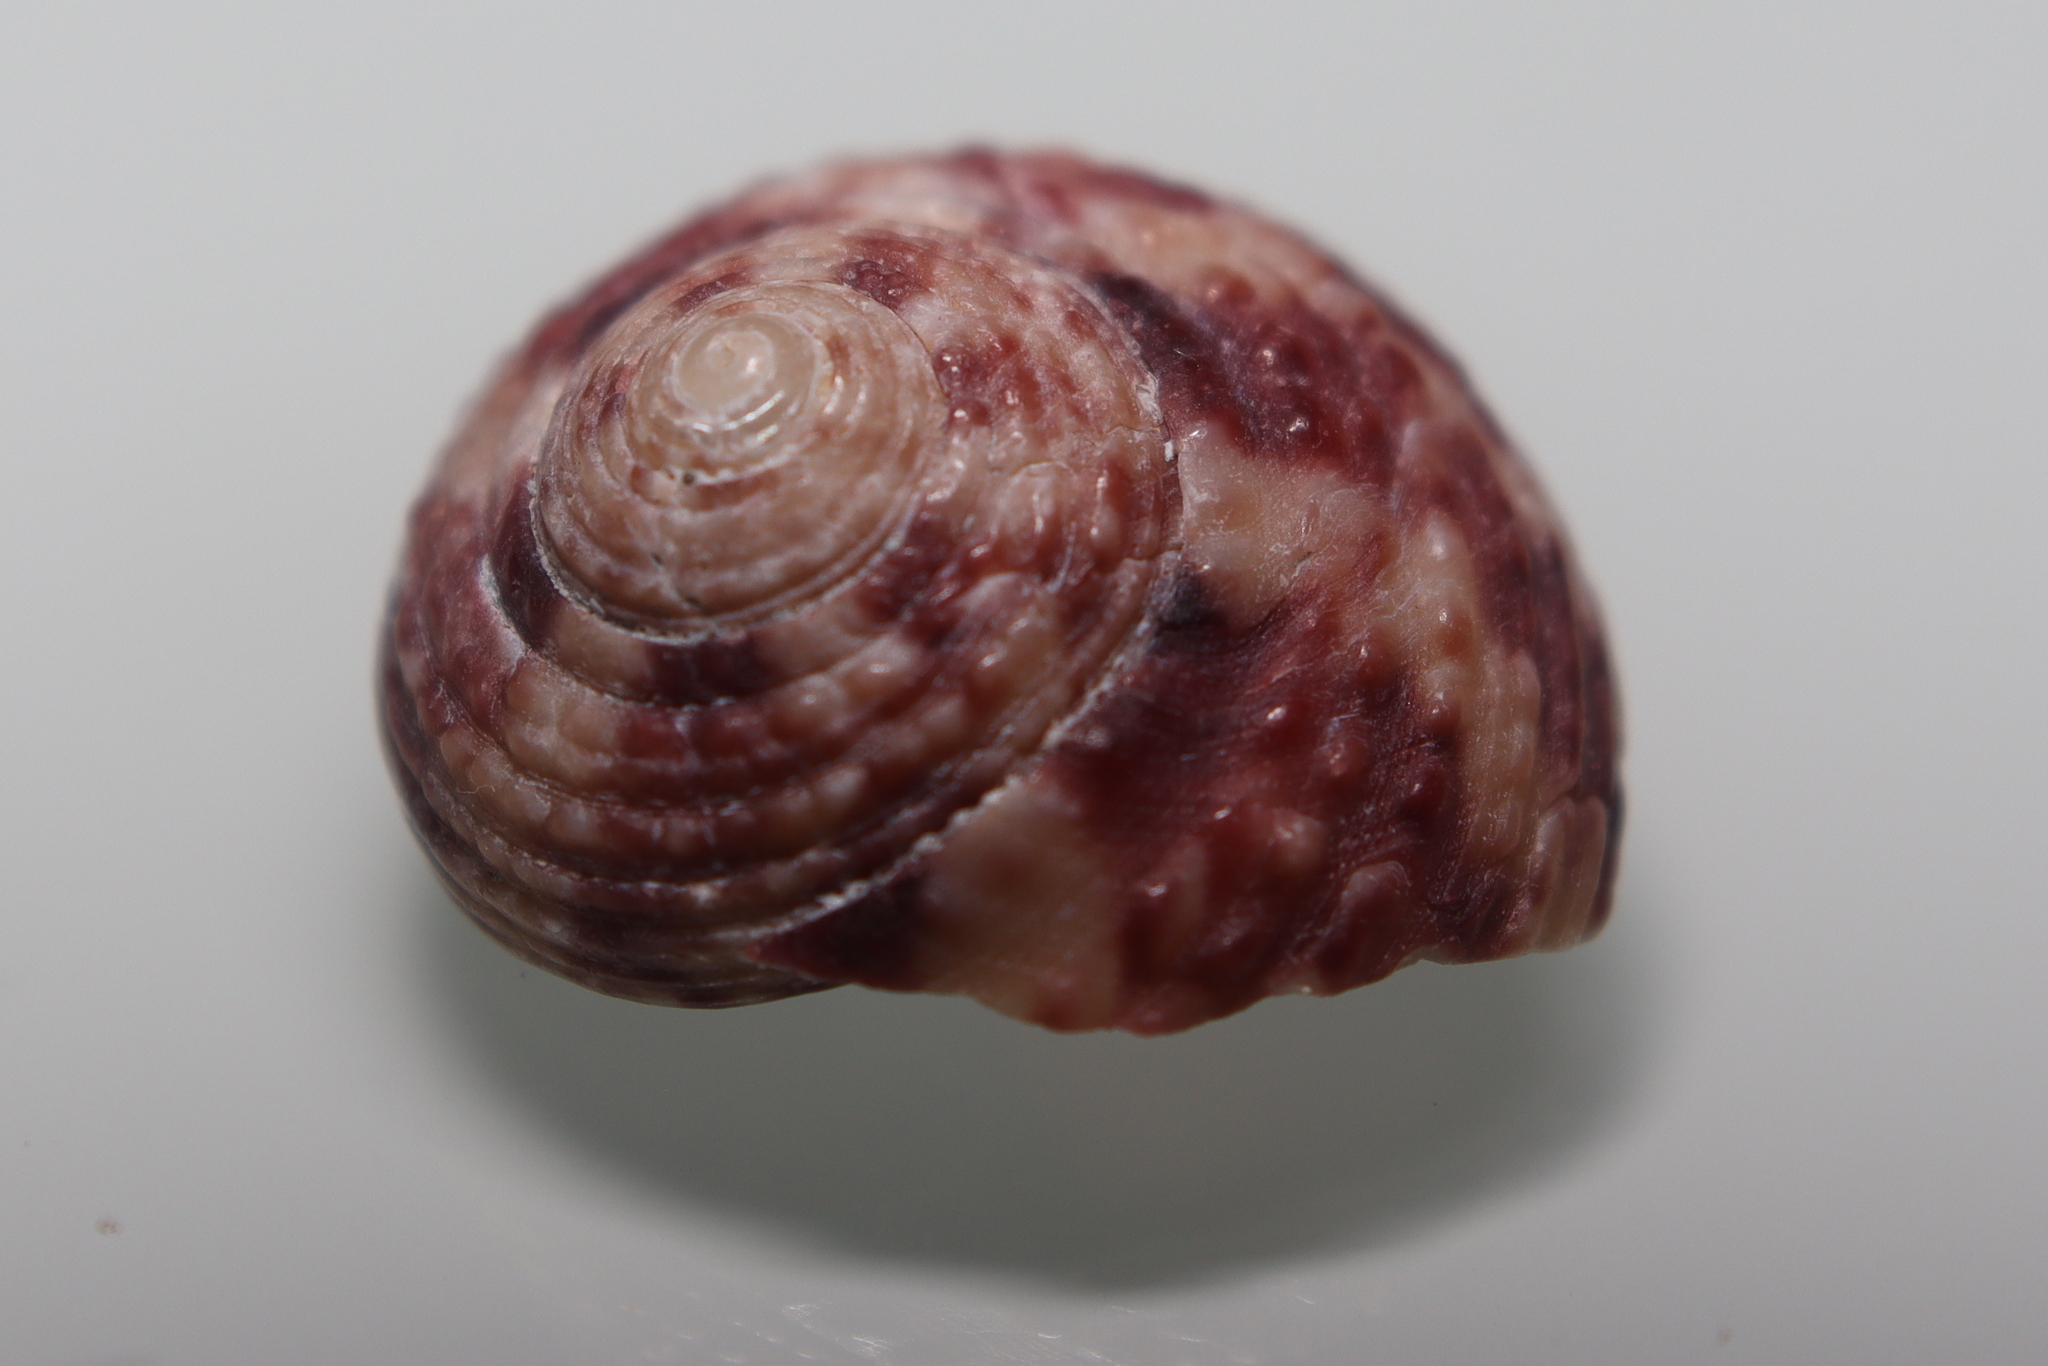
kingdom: Animalia
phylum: Mollusca
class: Gastropoda
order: Trochida
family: Tegulidae
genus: Agathistoma
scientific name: Agathistoma viridulum
